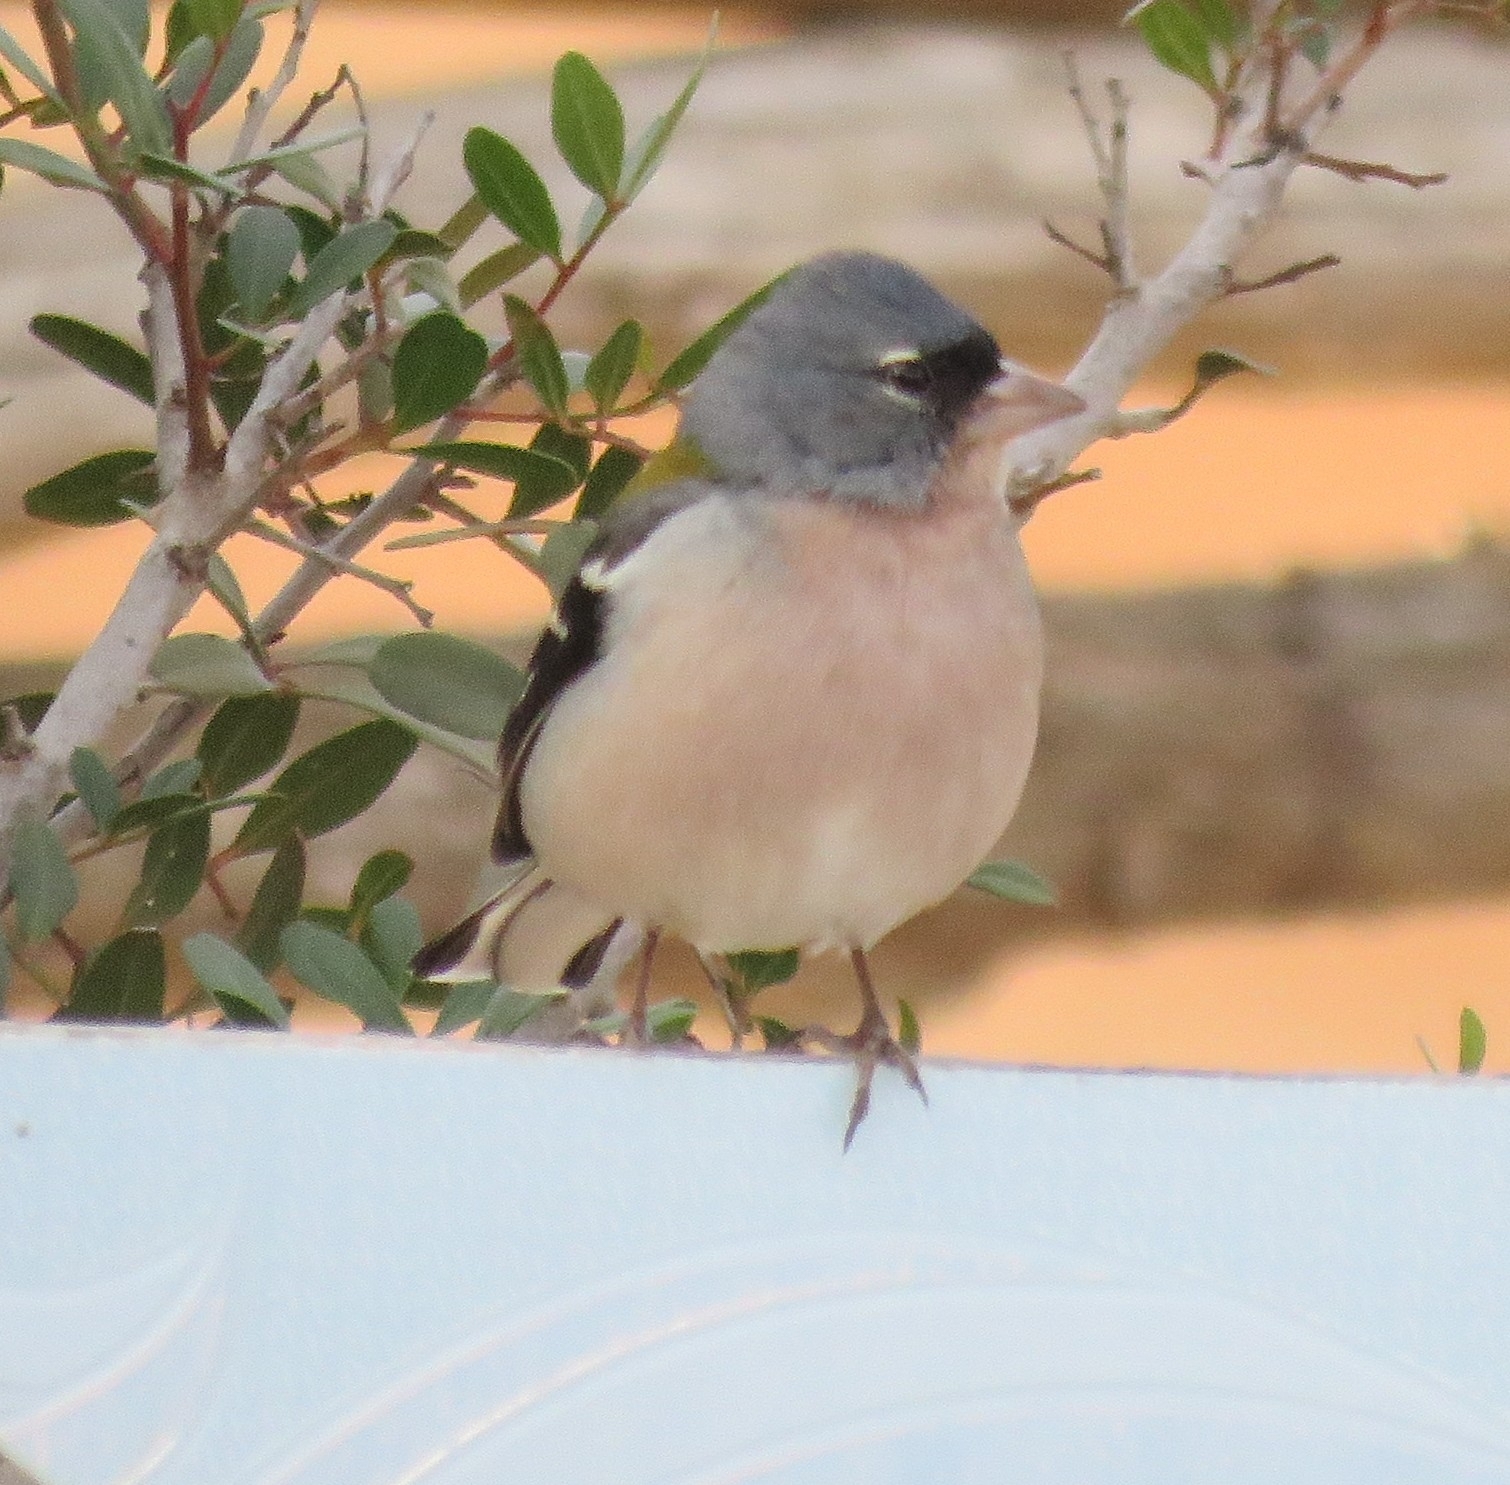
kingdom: Animalia
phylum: Chordata
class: Aves
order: Passeriformes
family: Fringillidae
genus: Fringilla
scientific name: Fringilla spodiogenys
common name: African chaffinch
